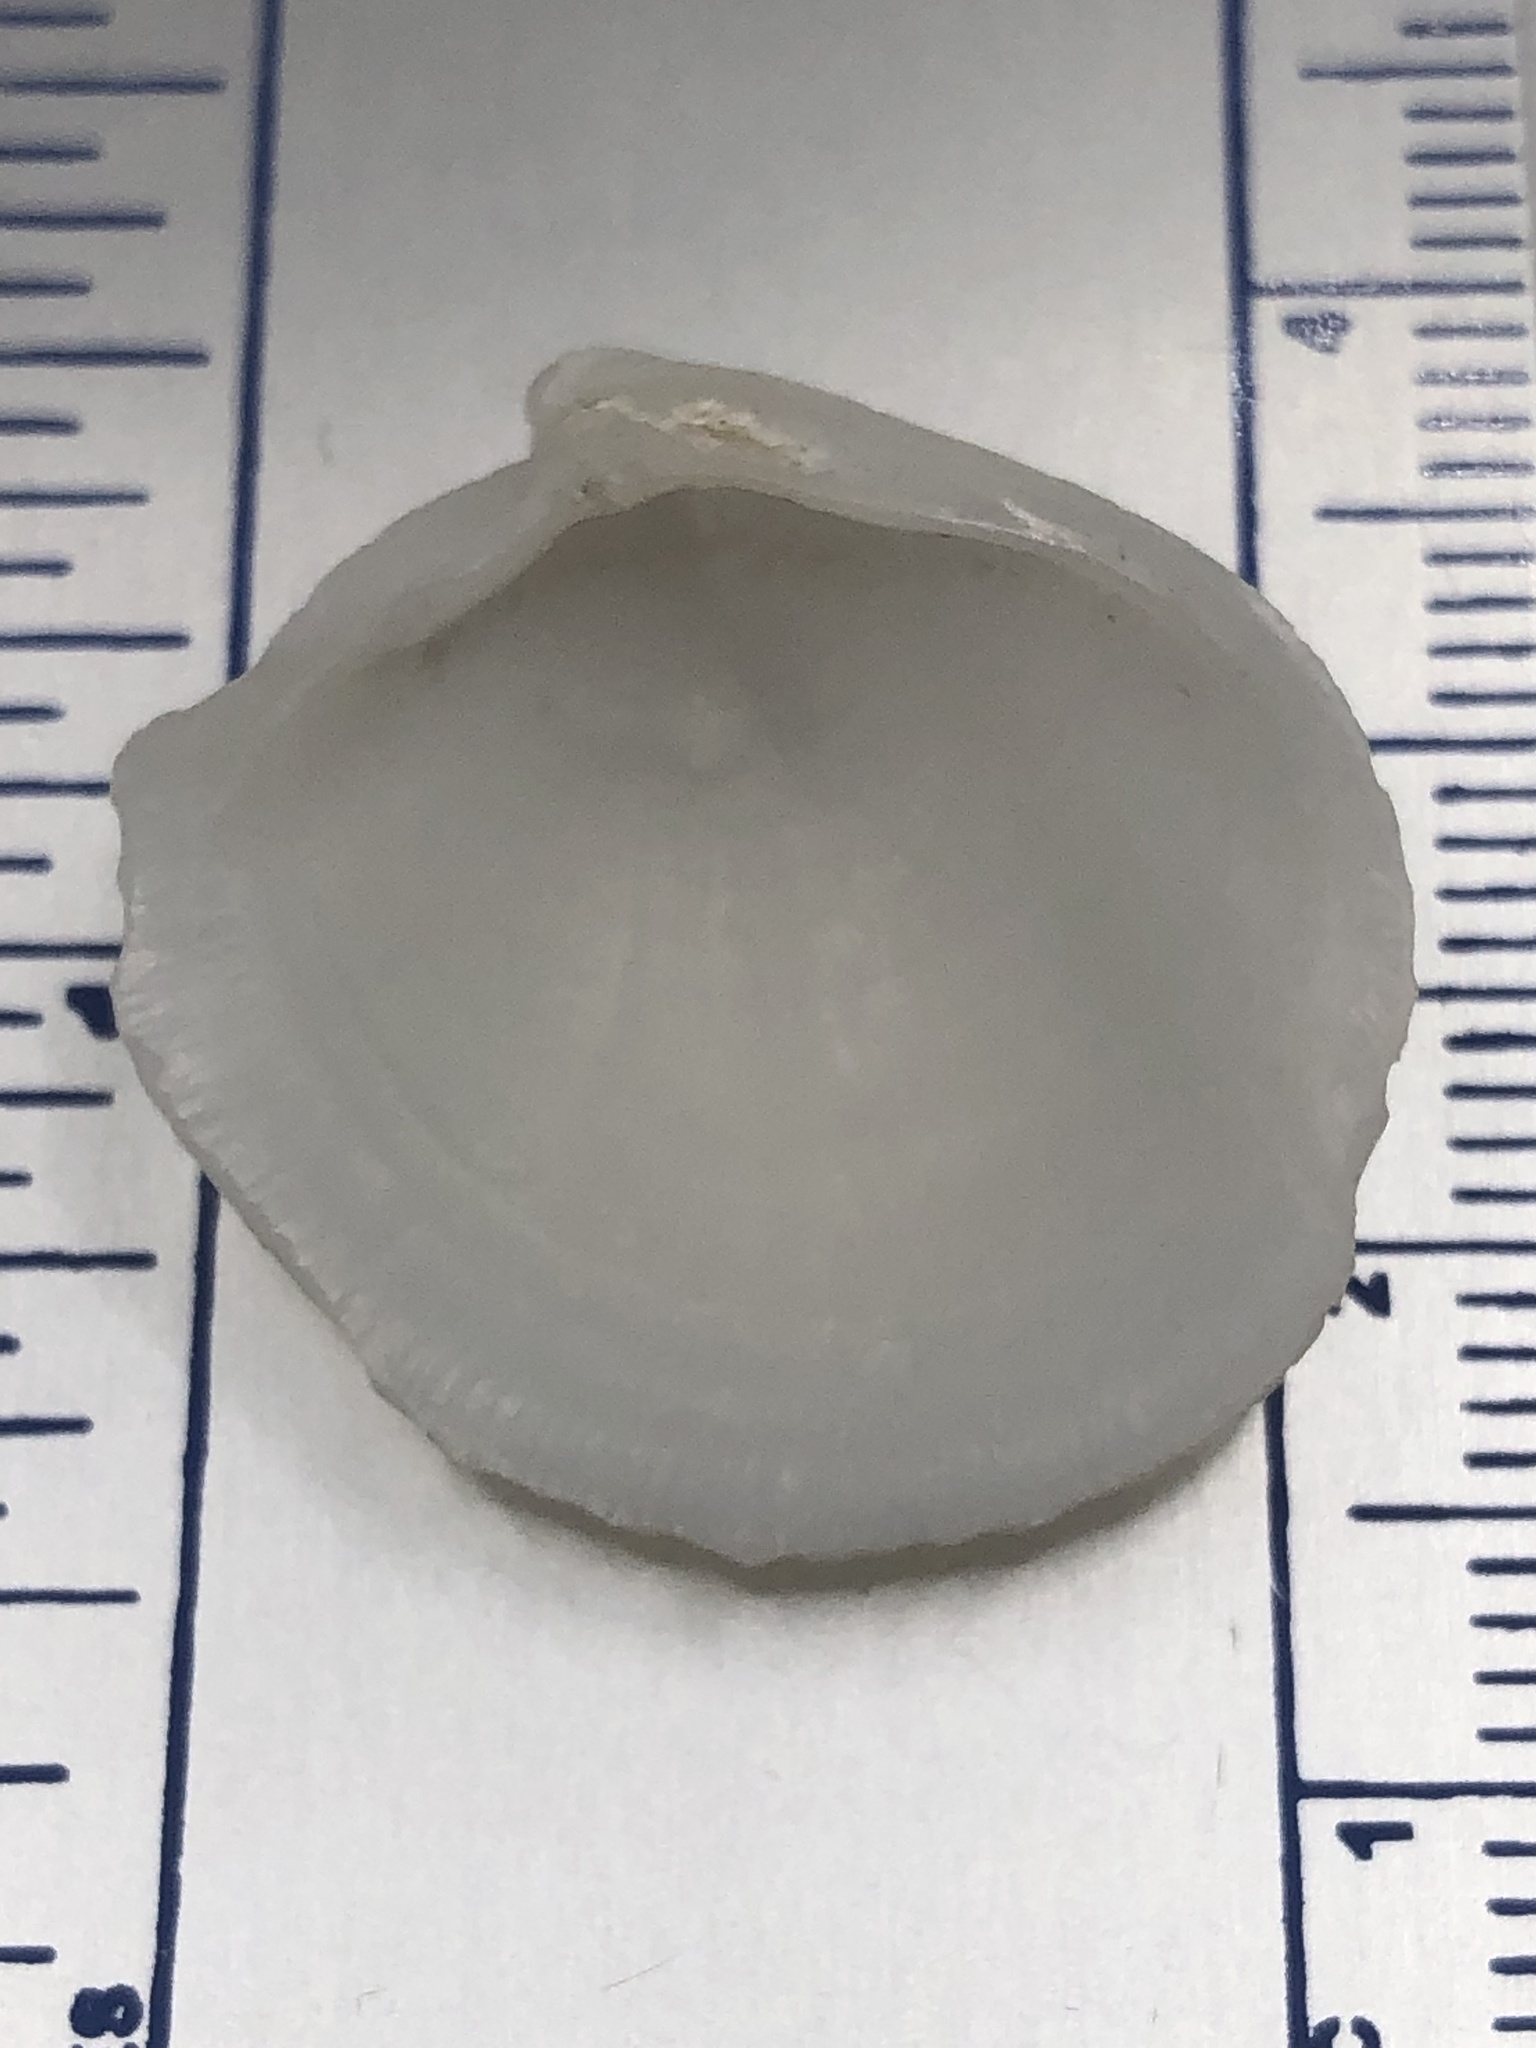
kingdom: Animalia
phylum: Mollusca
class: Bivalvia
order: Lucinida
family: Lucinidae
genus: Lucina
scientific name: Lucina pensylvanica
